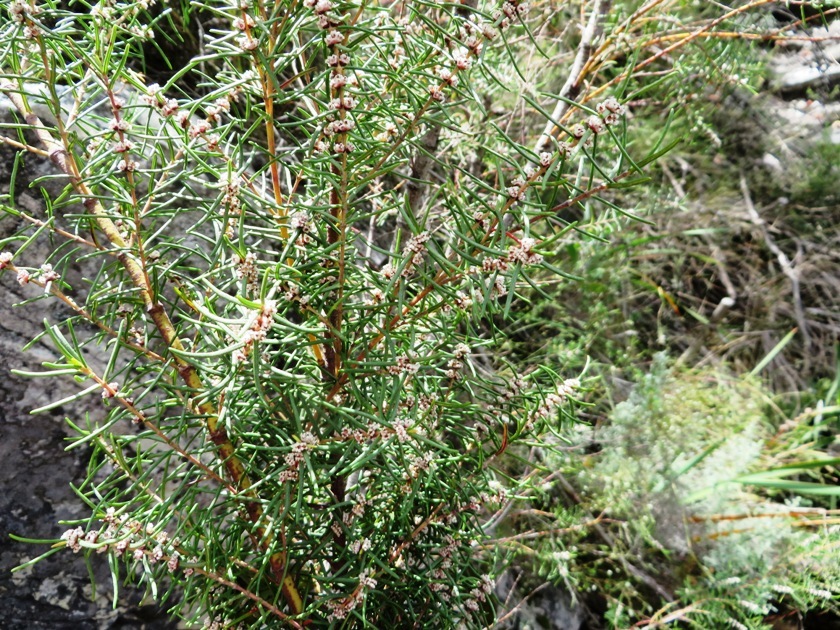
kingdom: Plantae
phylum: Tracheophyta
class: Magnoliopsida
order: Cornales
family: Grubbiaceae
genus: Grubbia
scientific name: Grubbia rosmarinifolia
